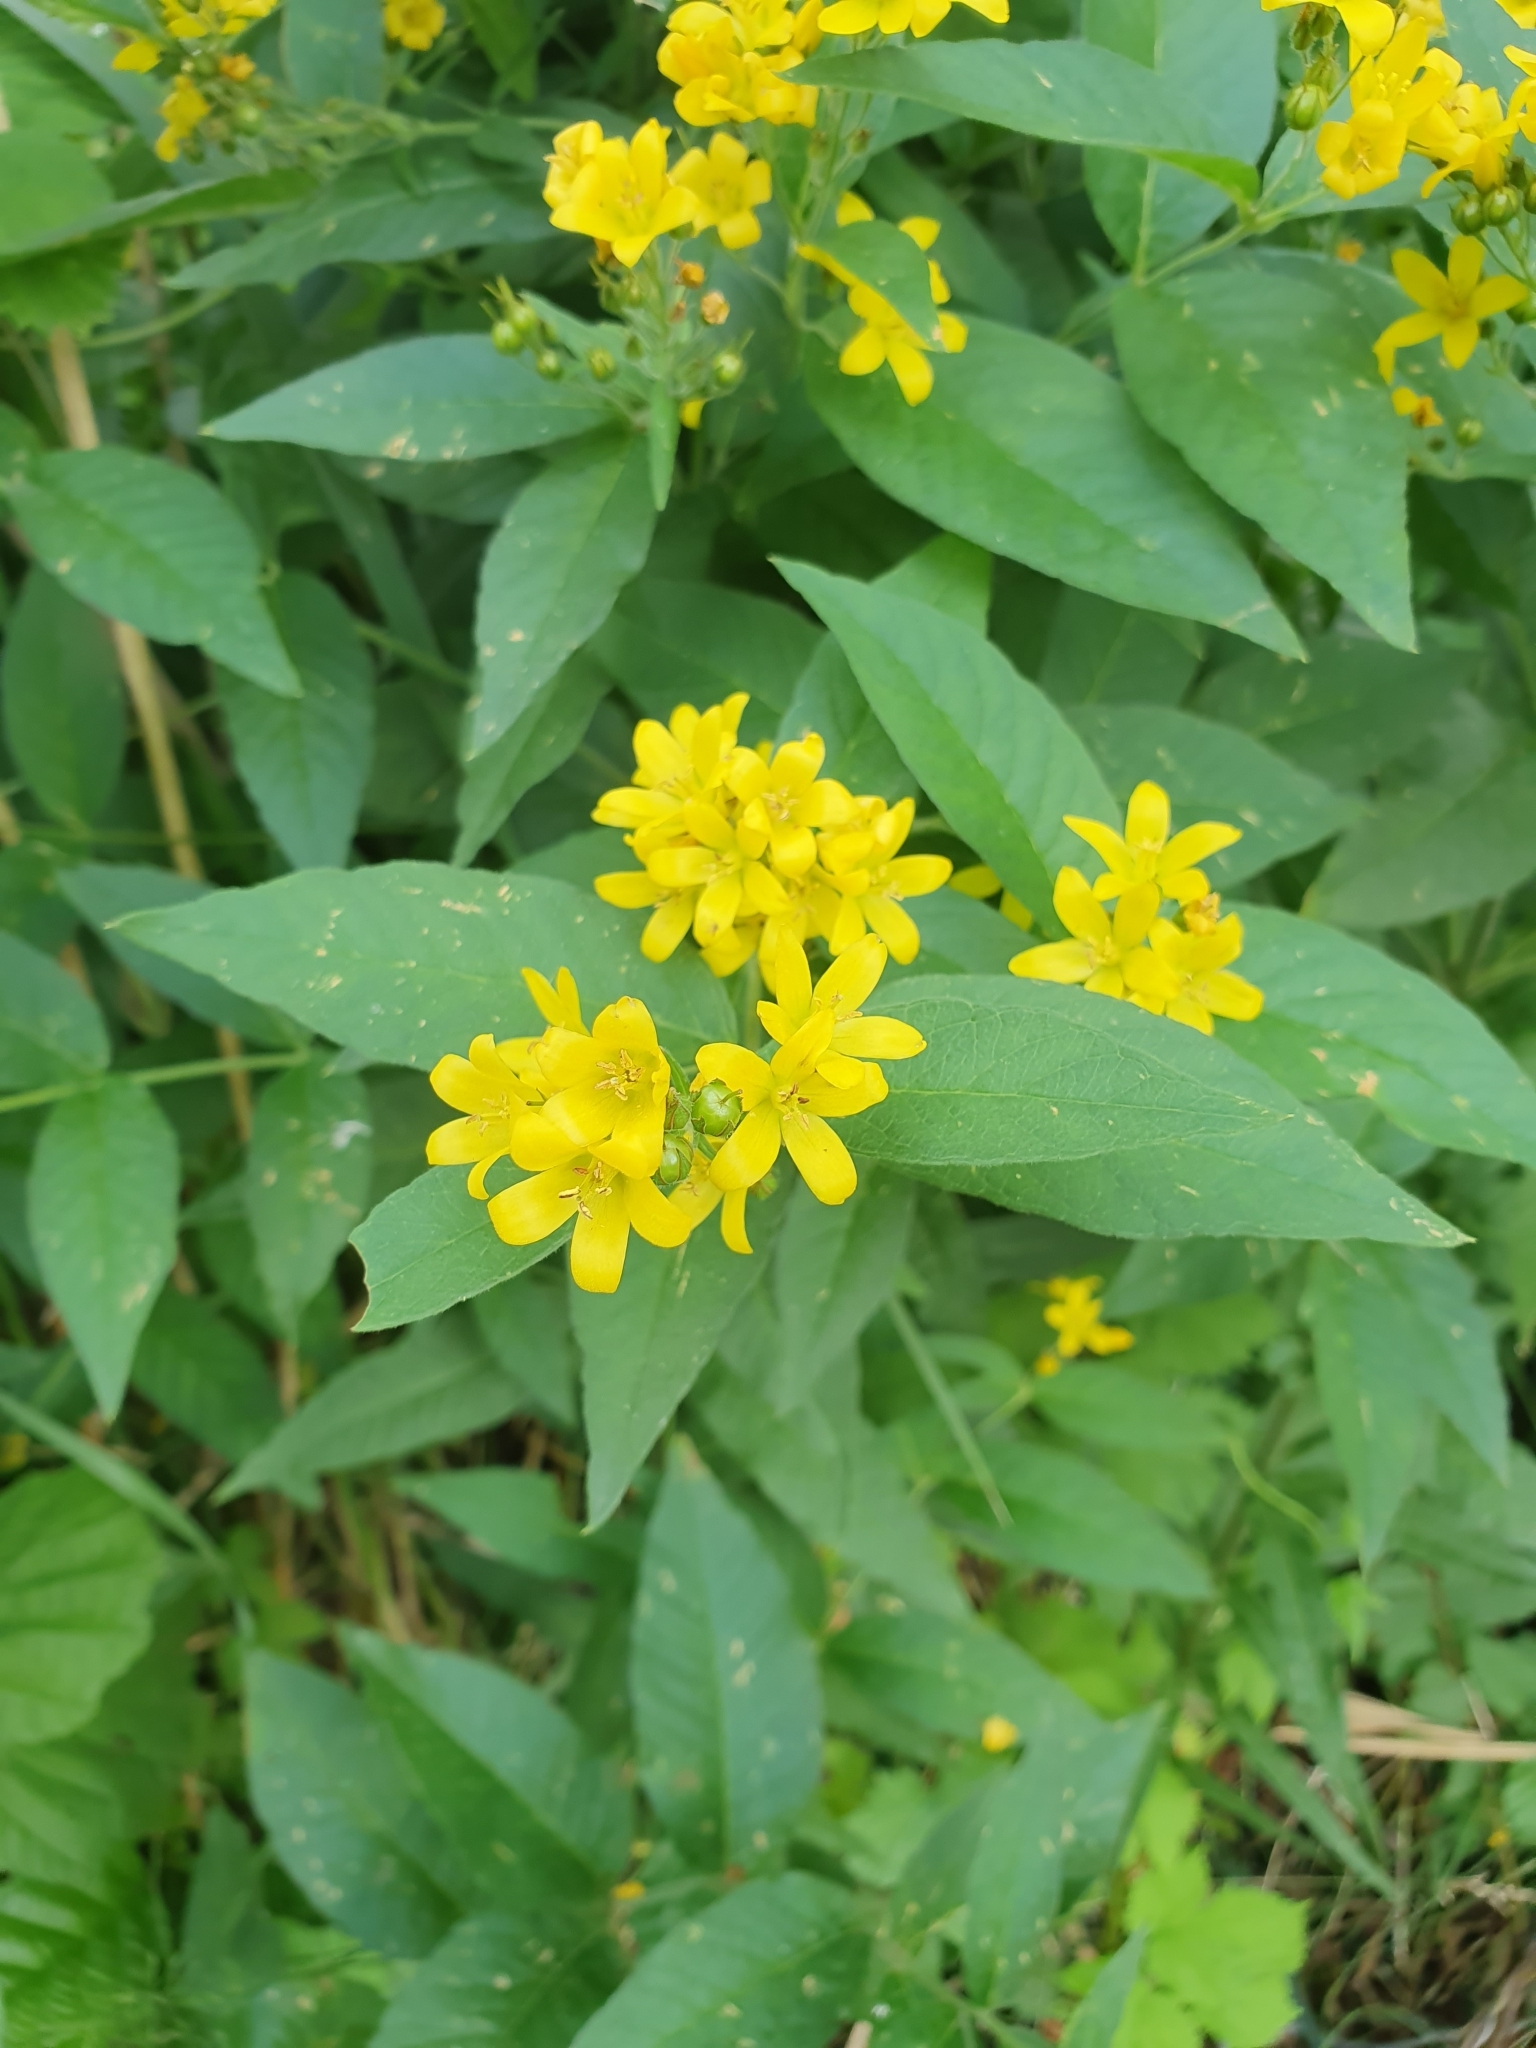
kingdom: Plantae
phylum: Tracheophyta
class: Magnoliopsida
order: Ericales
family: Primulaceae
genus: Lysimachia
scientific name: Lysimachia vulgaris
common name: Yellow loosestrife
